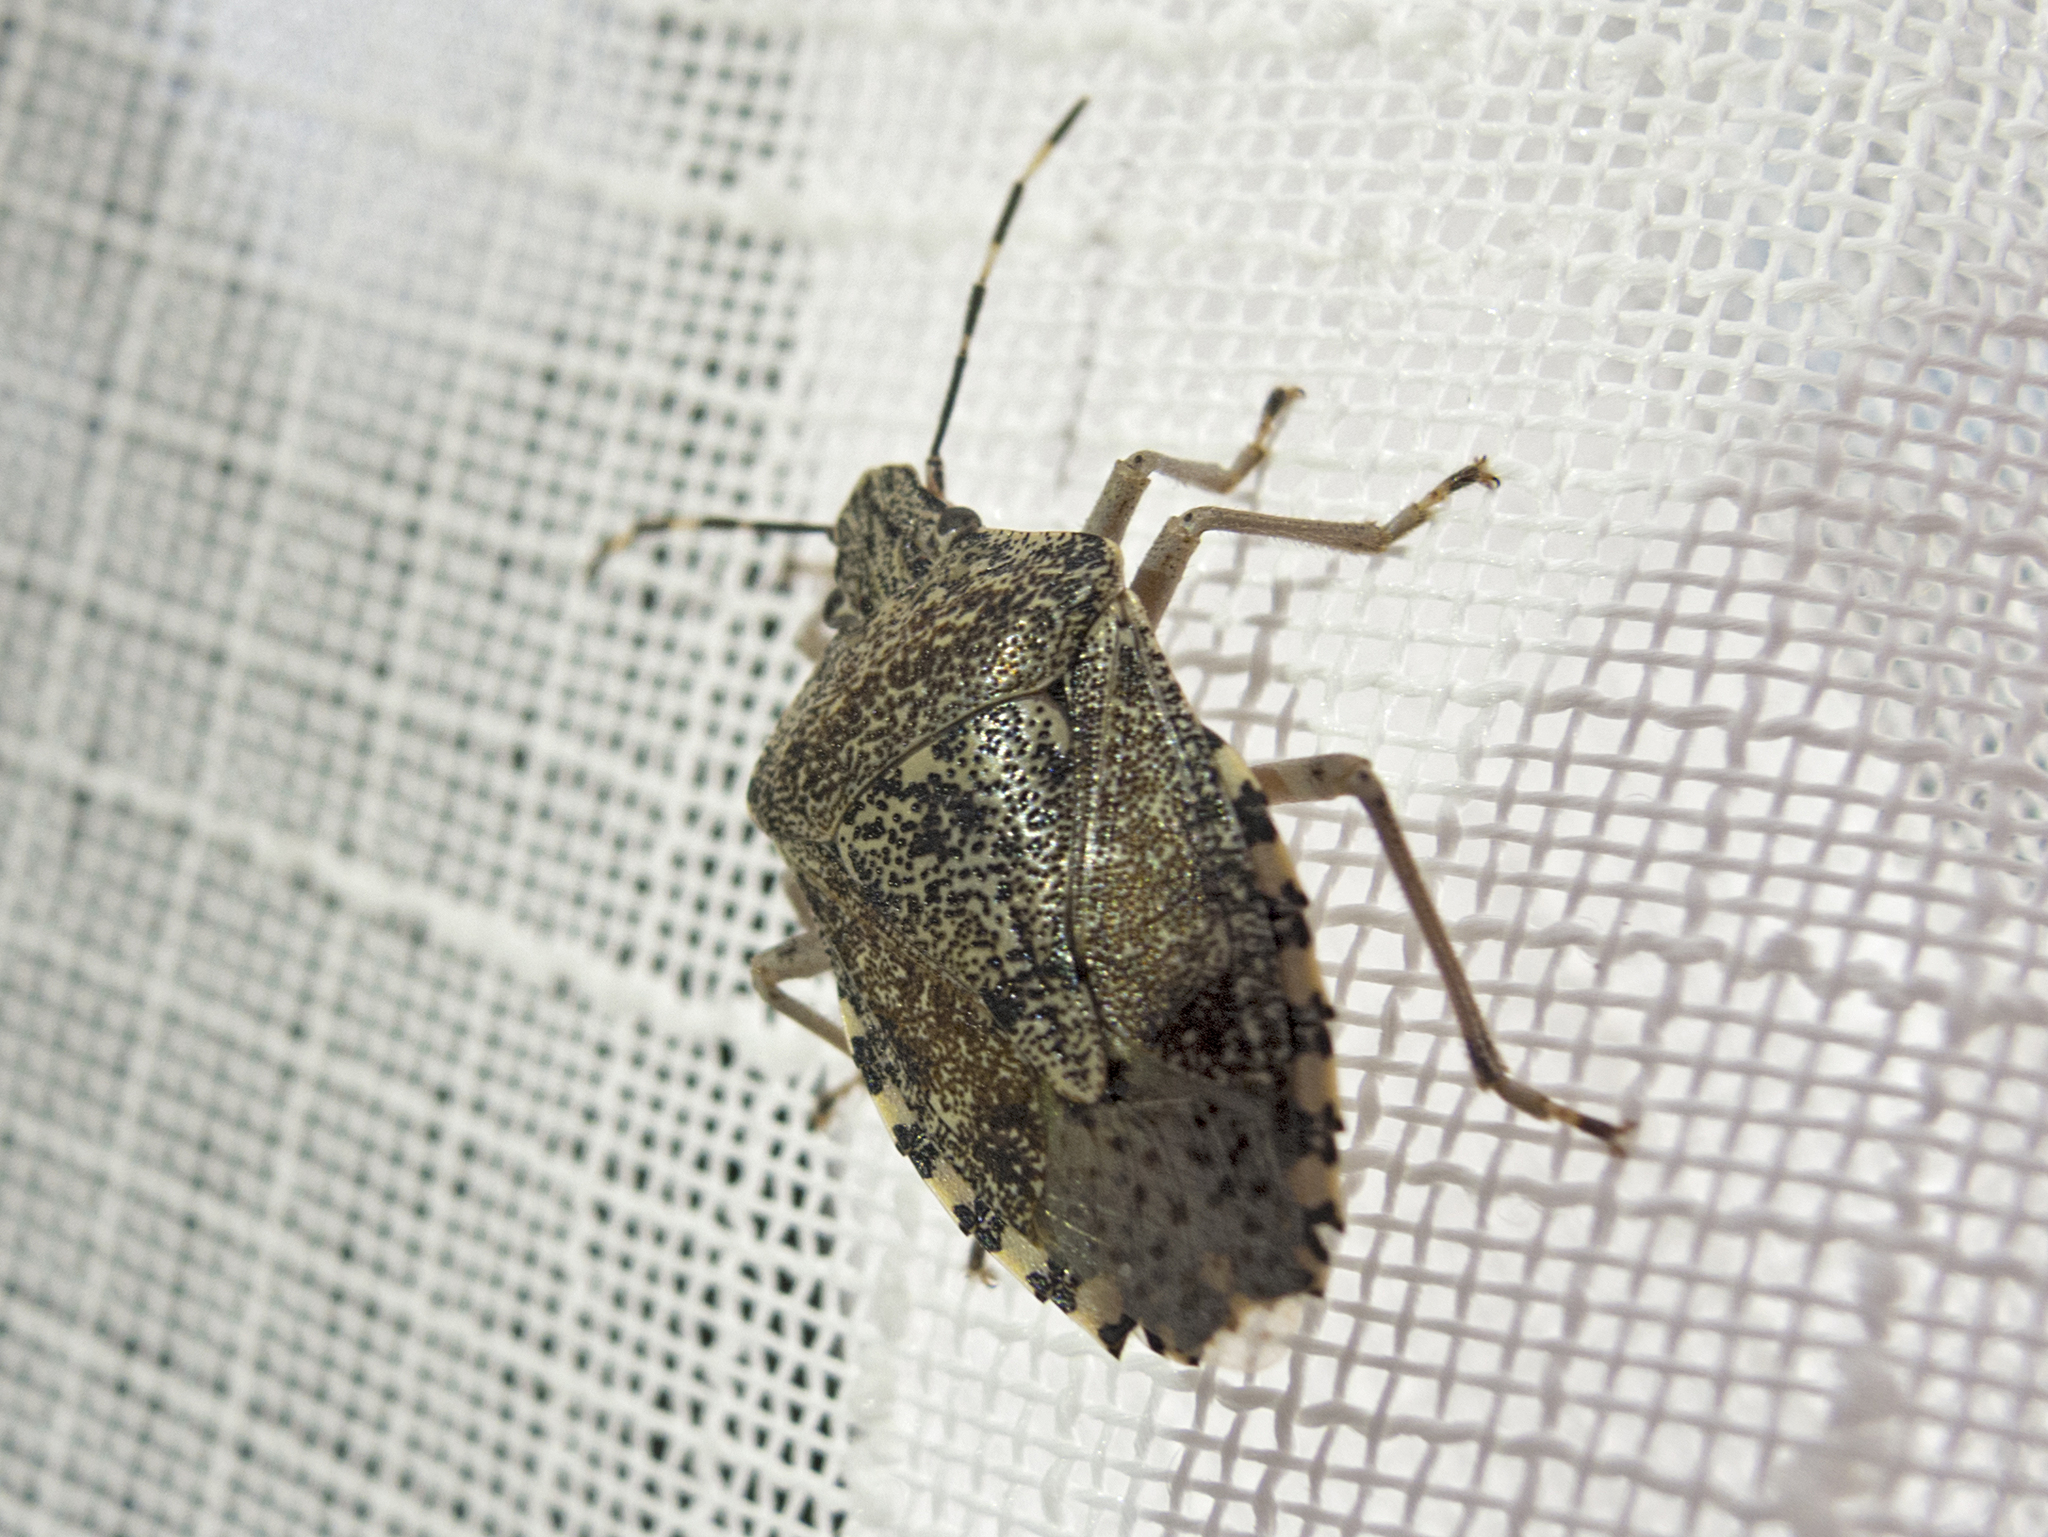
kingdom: Animalia
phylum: Arthropoda
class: Insecta
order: Hemiptera
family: Pentatomidae
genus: Rhaphigaster
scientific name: Rhaphigaster nebulosa
